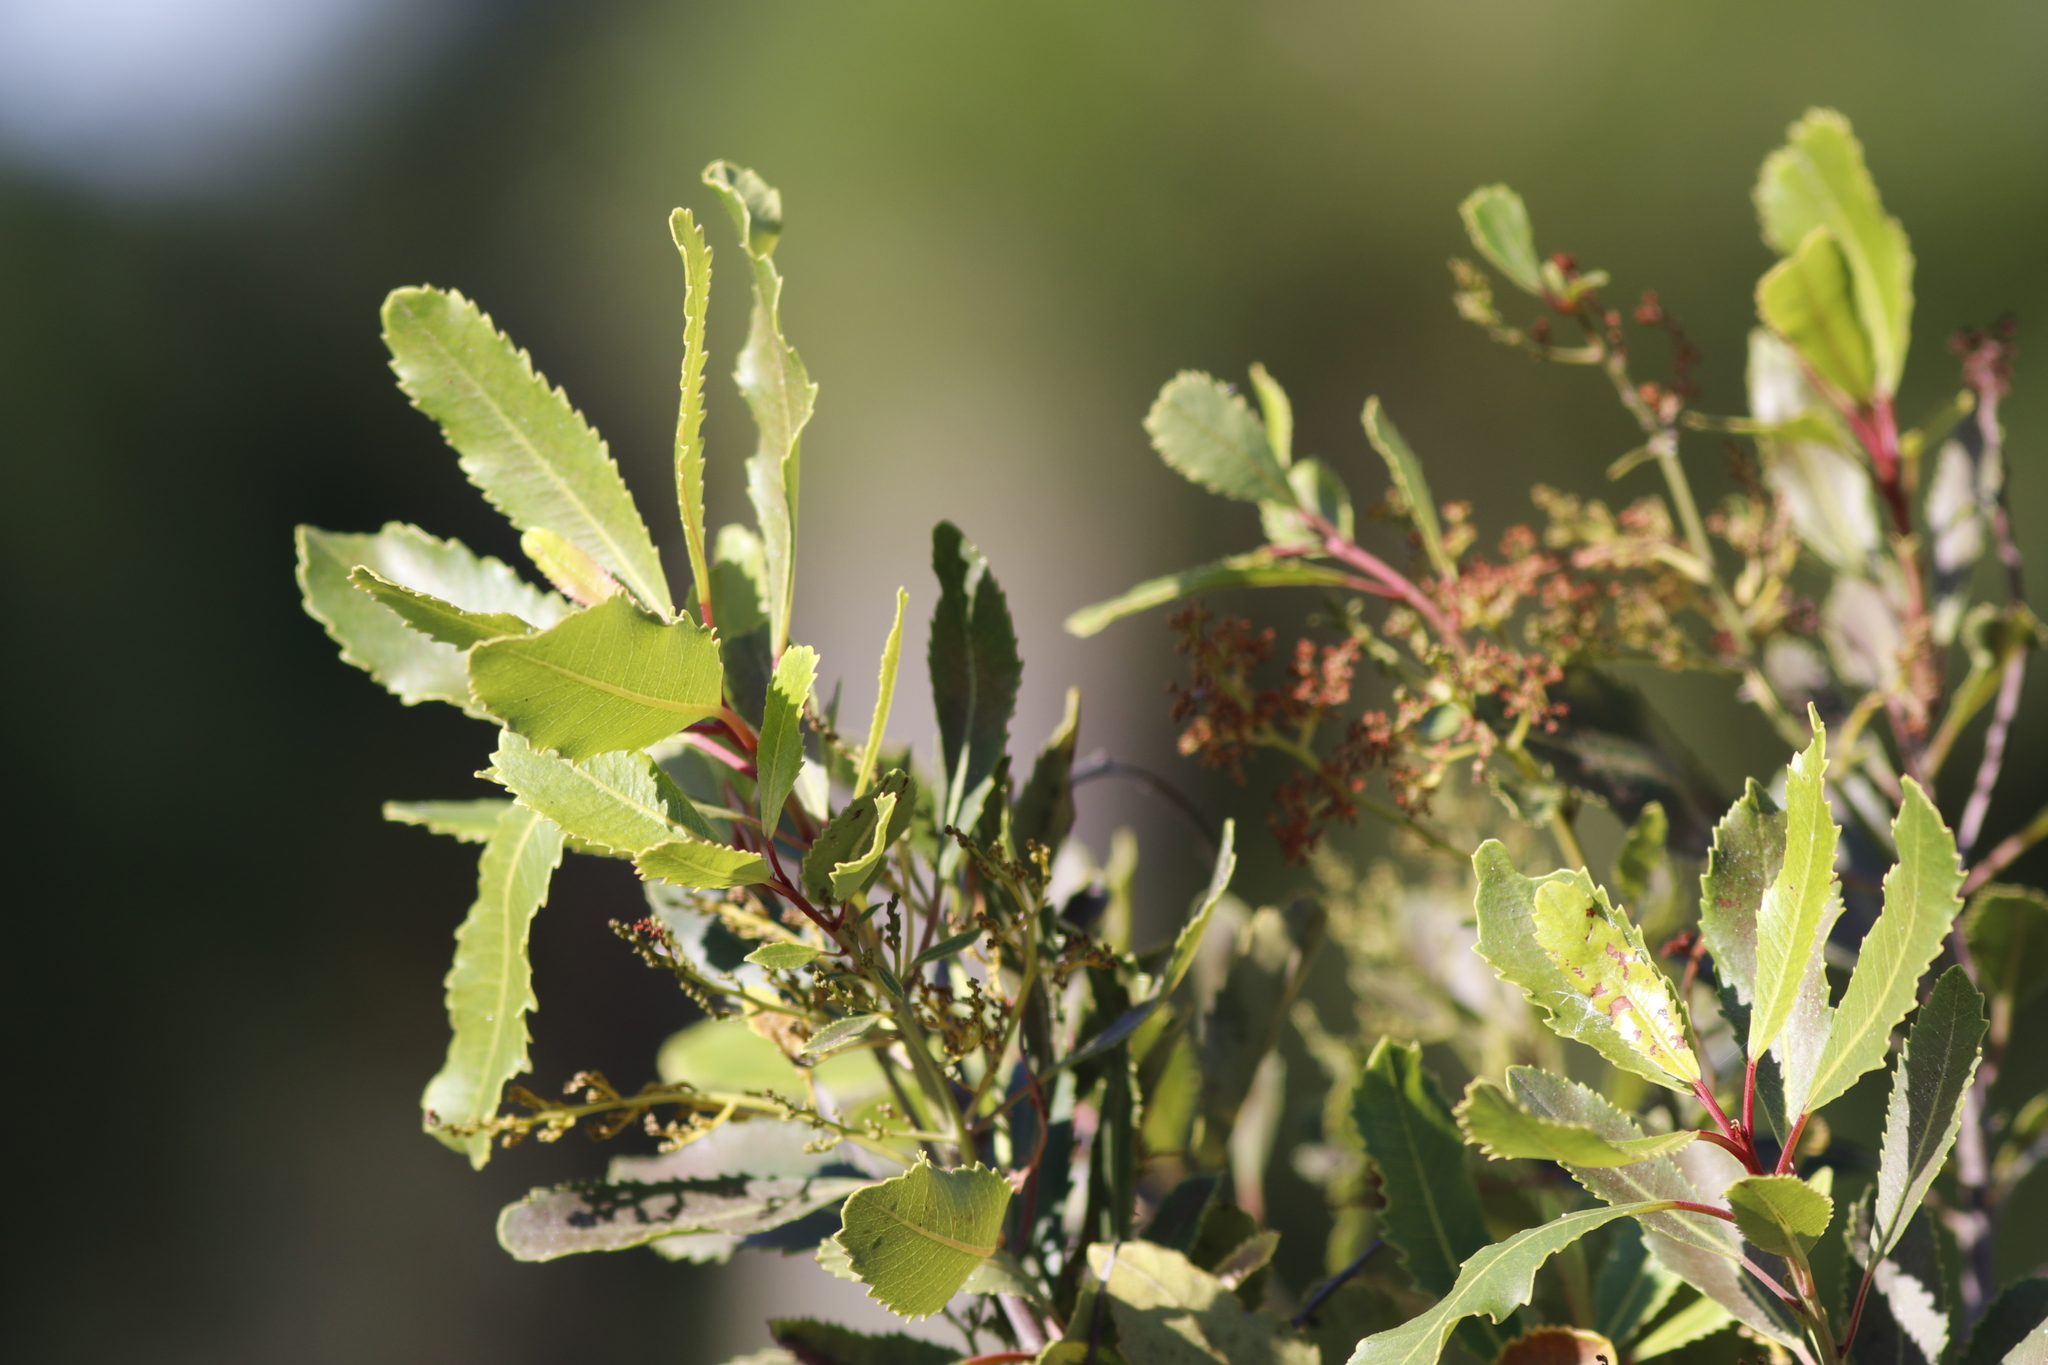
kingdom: Plantae
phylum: Tracheophyta
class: Magnoliopsida
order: Sapindales
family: Anacardiaceae
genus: Laurophyllus
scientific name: Laurophyllus capensis
